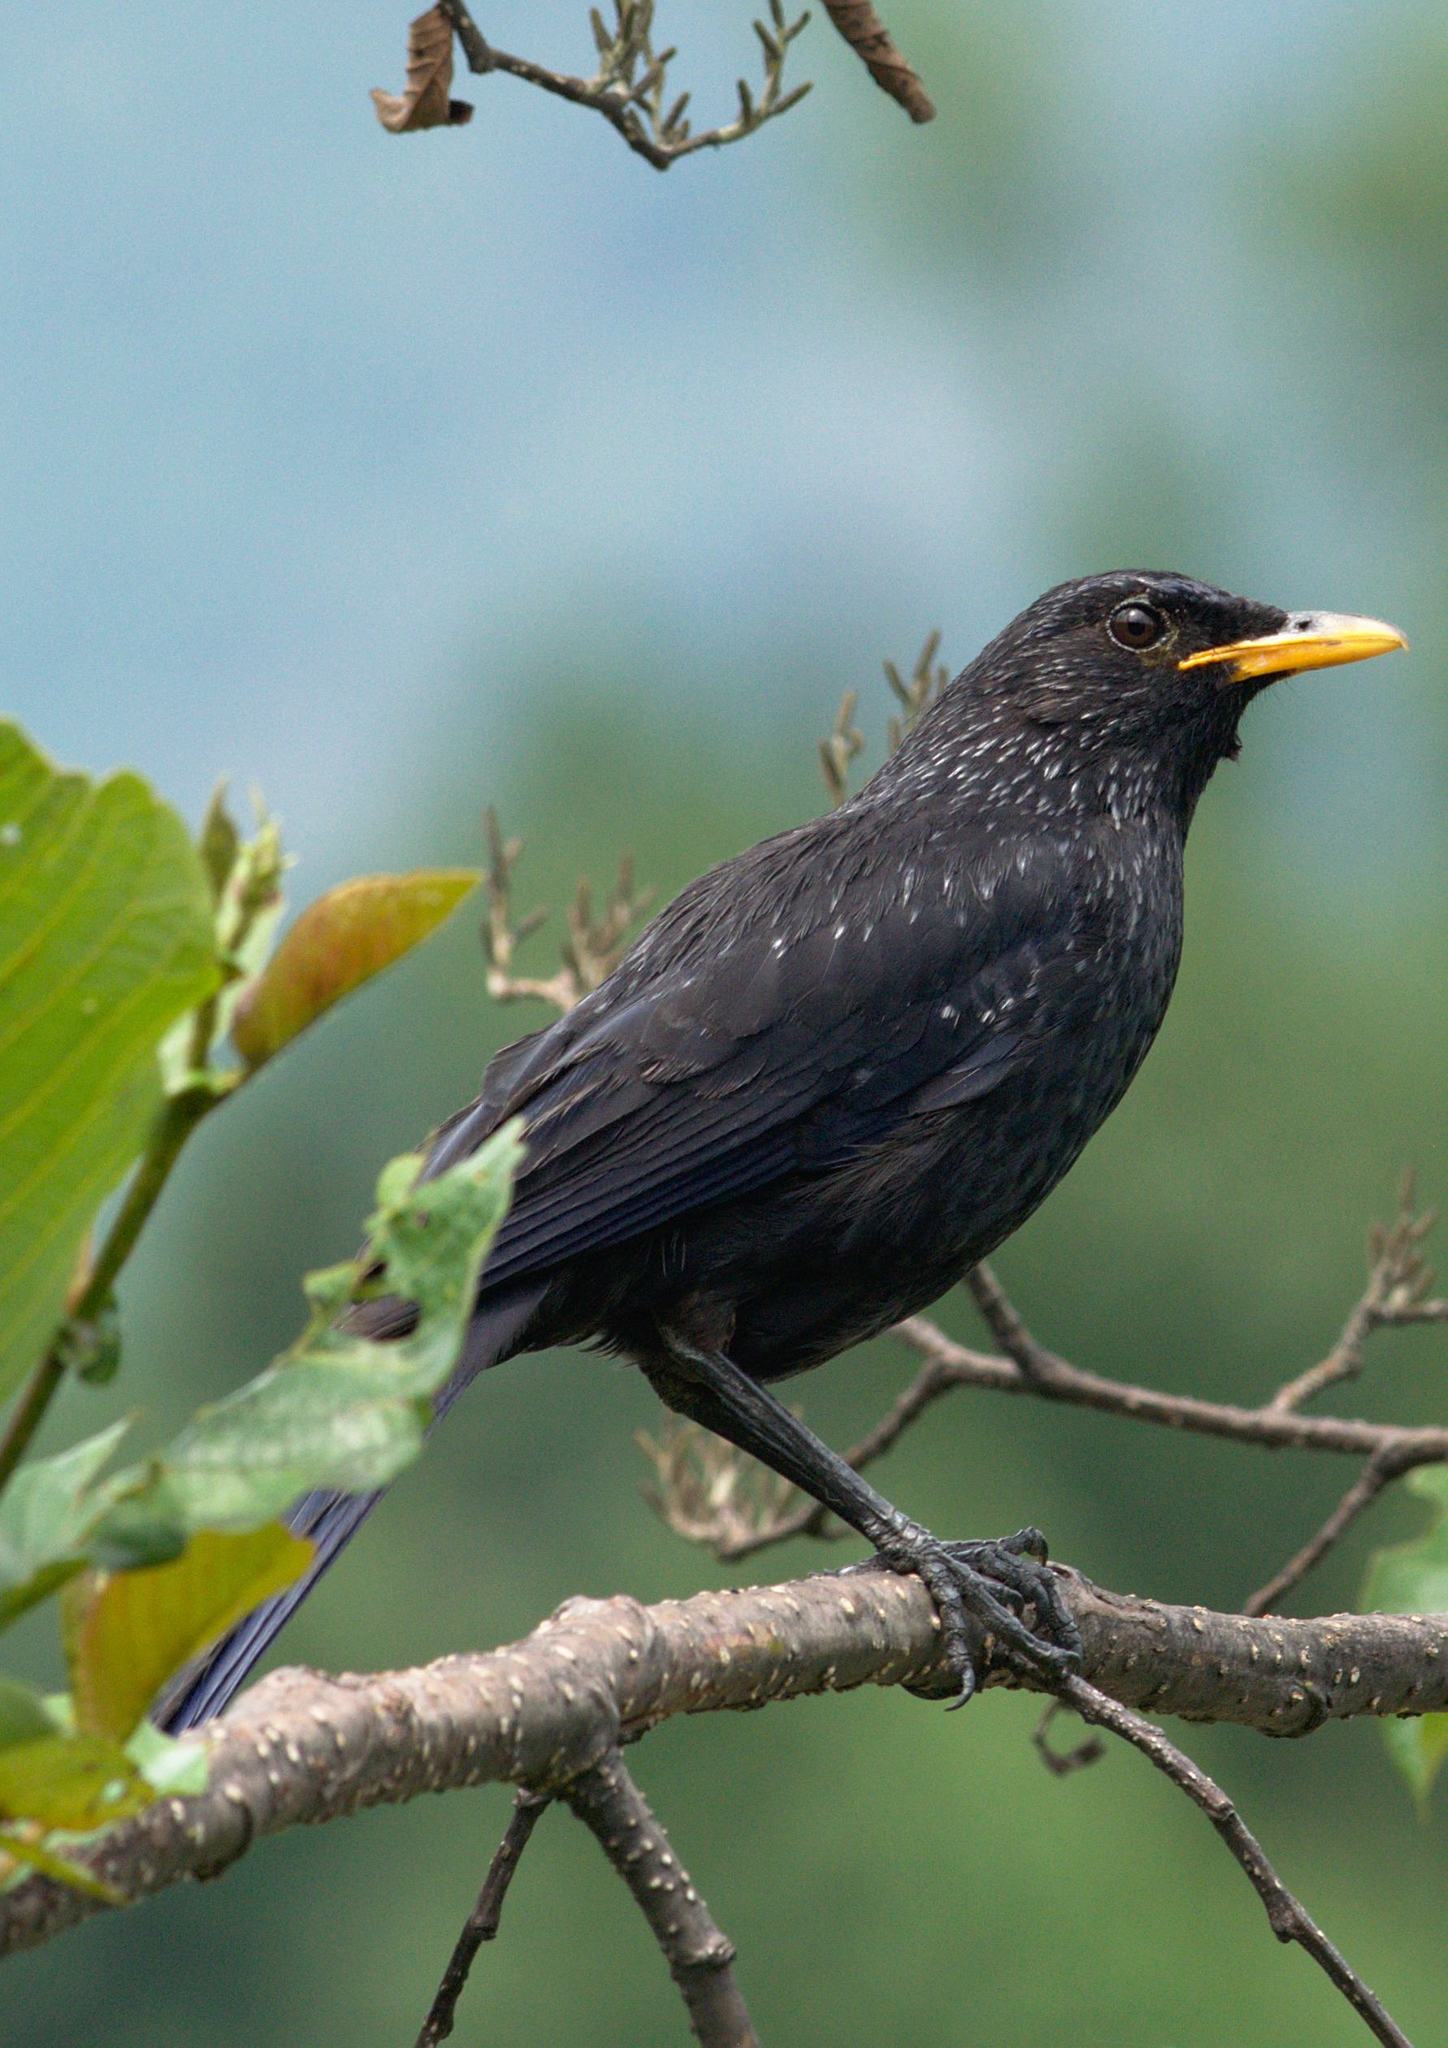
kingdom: Animalia
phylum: Chordata
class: Aves
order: Passeriformes
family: Muscicapidae
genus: Myophonus
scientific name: Myophonus caeruleus
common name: Blue whistling-thrush
